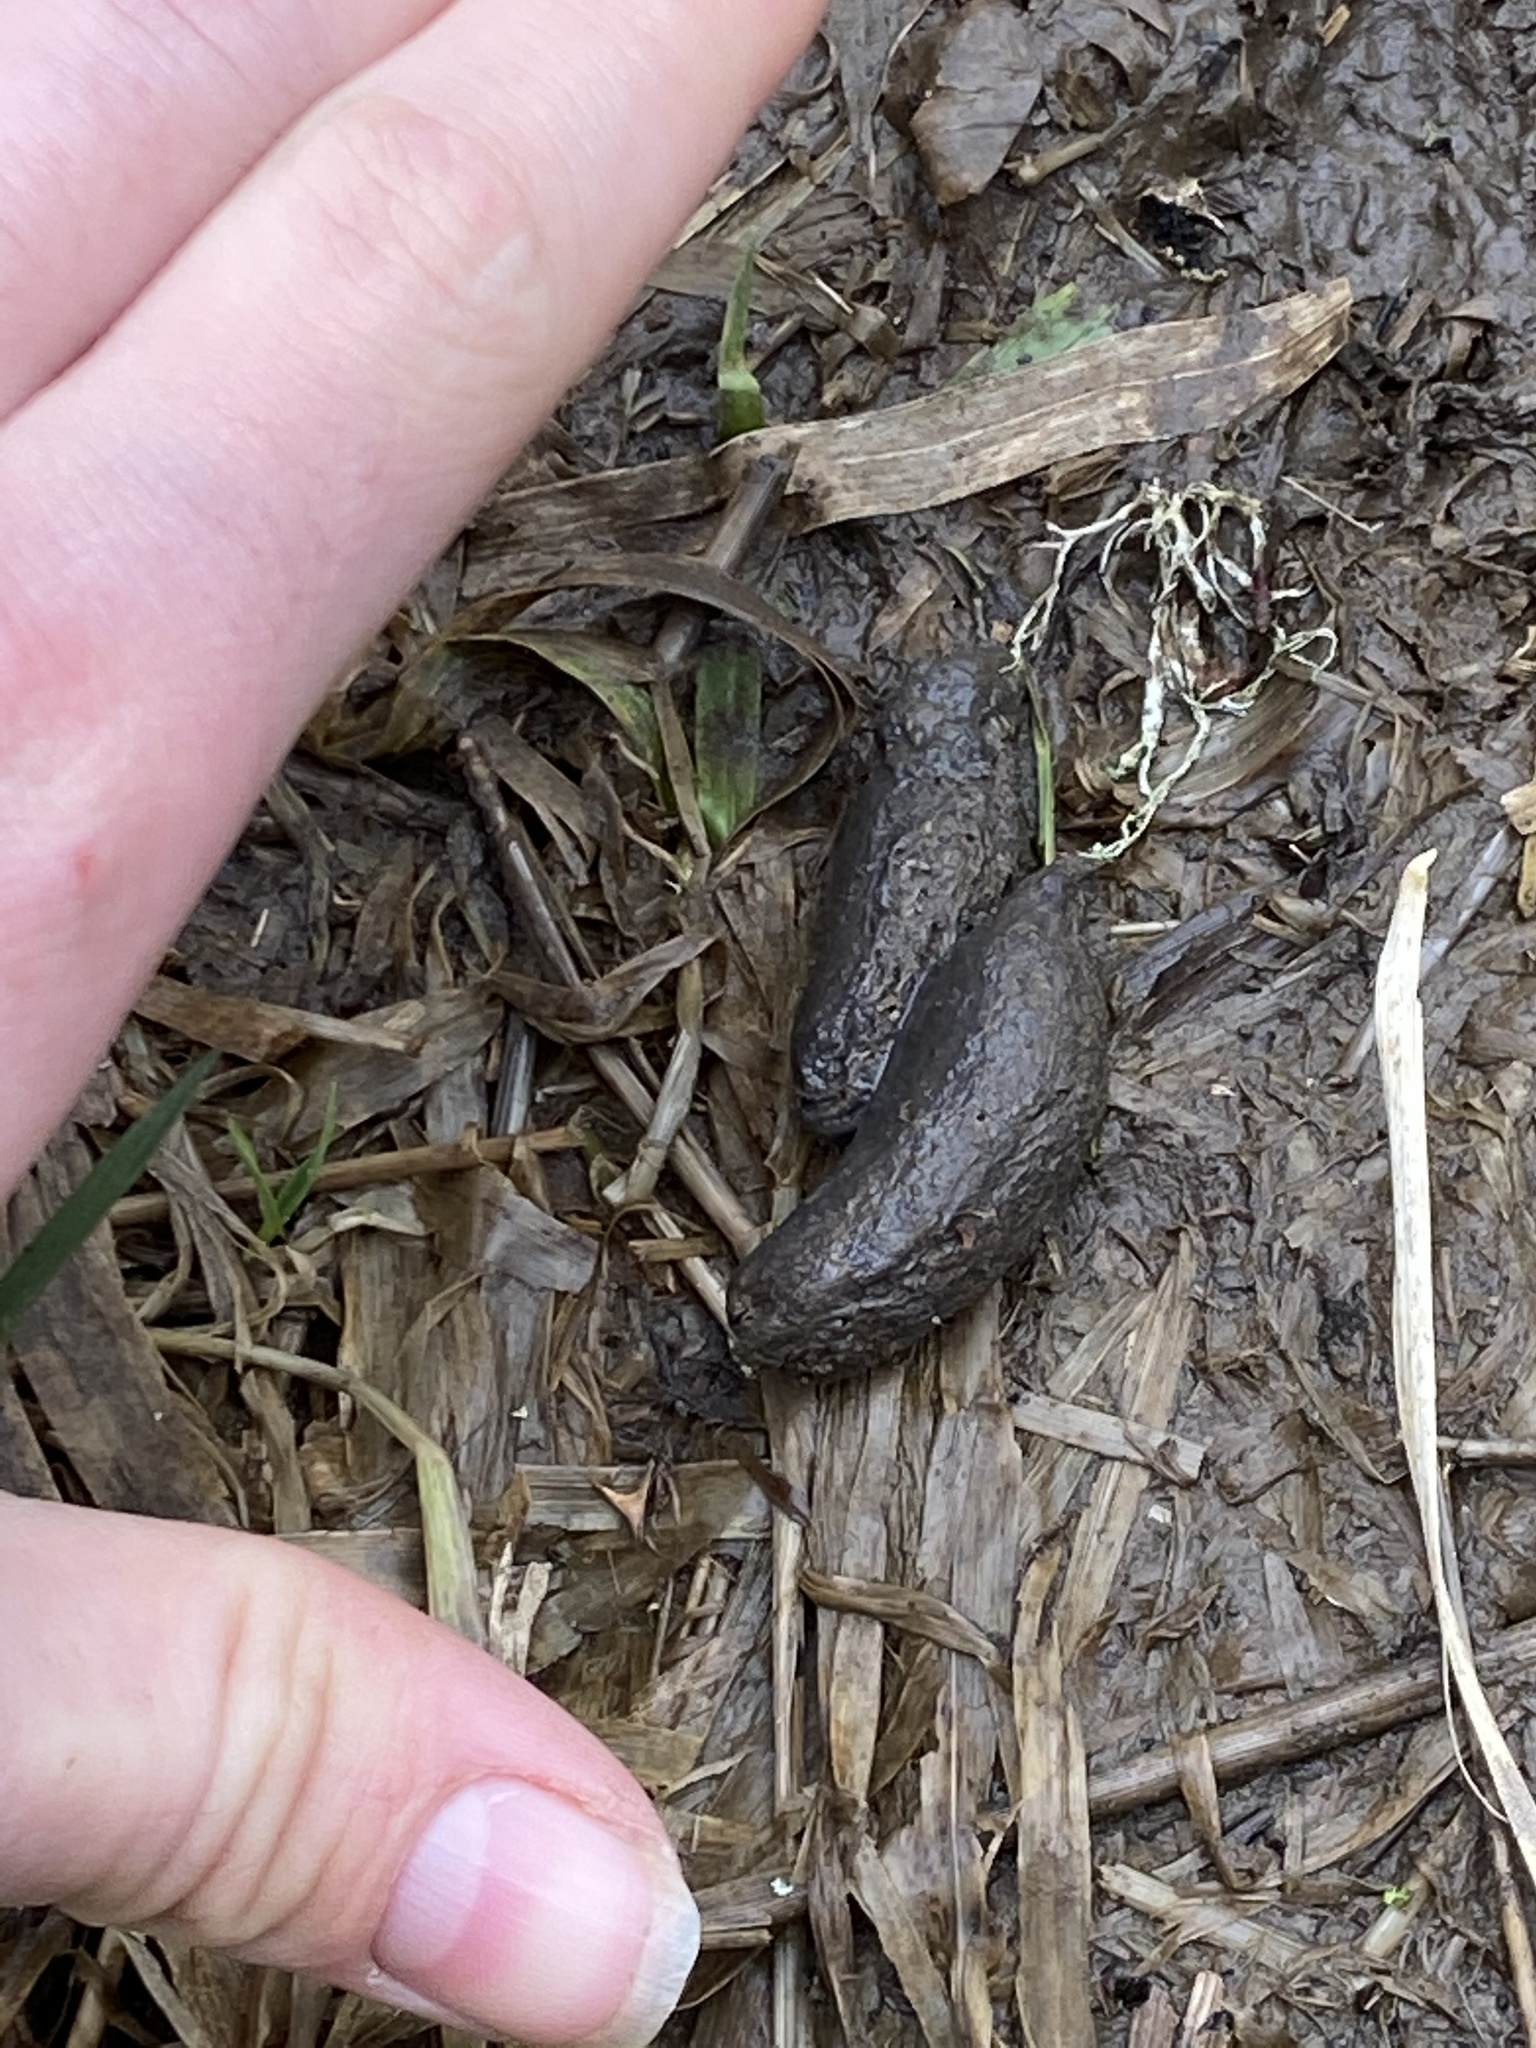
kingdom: Animalia
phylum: Chordata
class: Mammalia
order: Rodentia
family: Myocastoridae
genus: Myocastor
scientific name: Myocastor coypus
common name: Coypu
